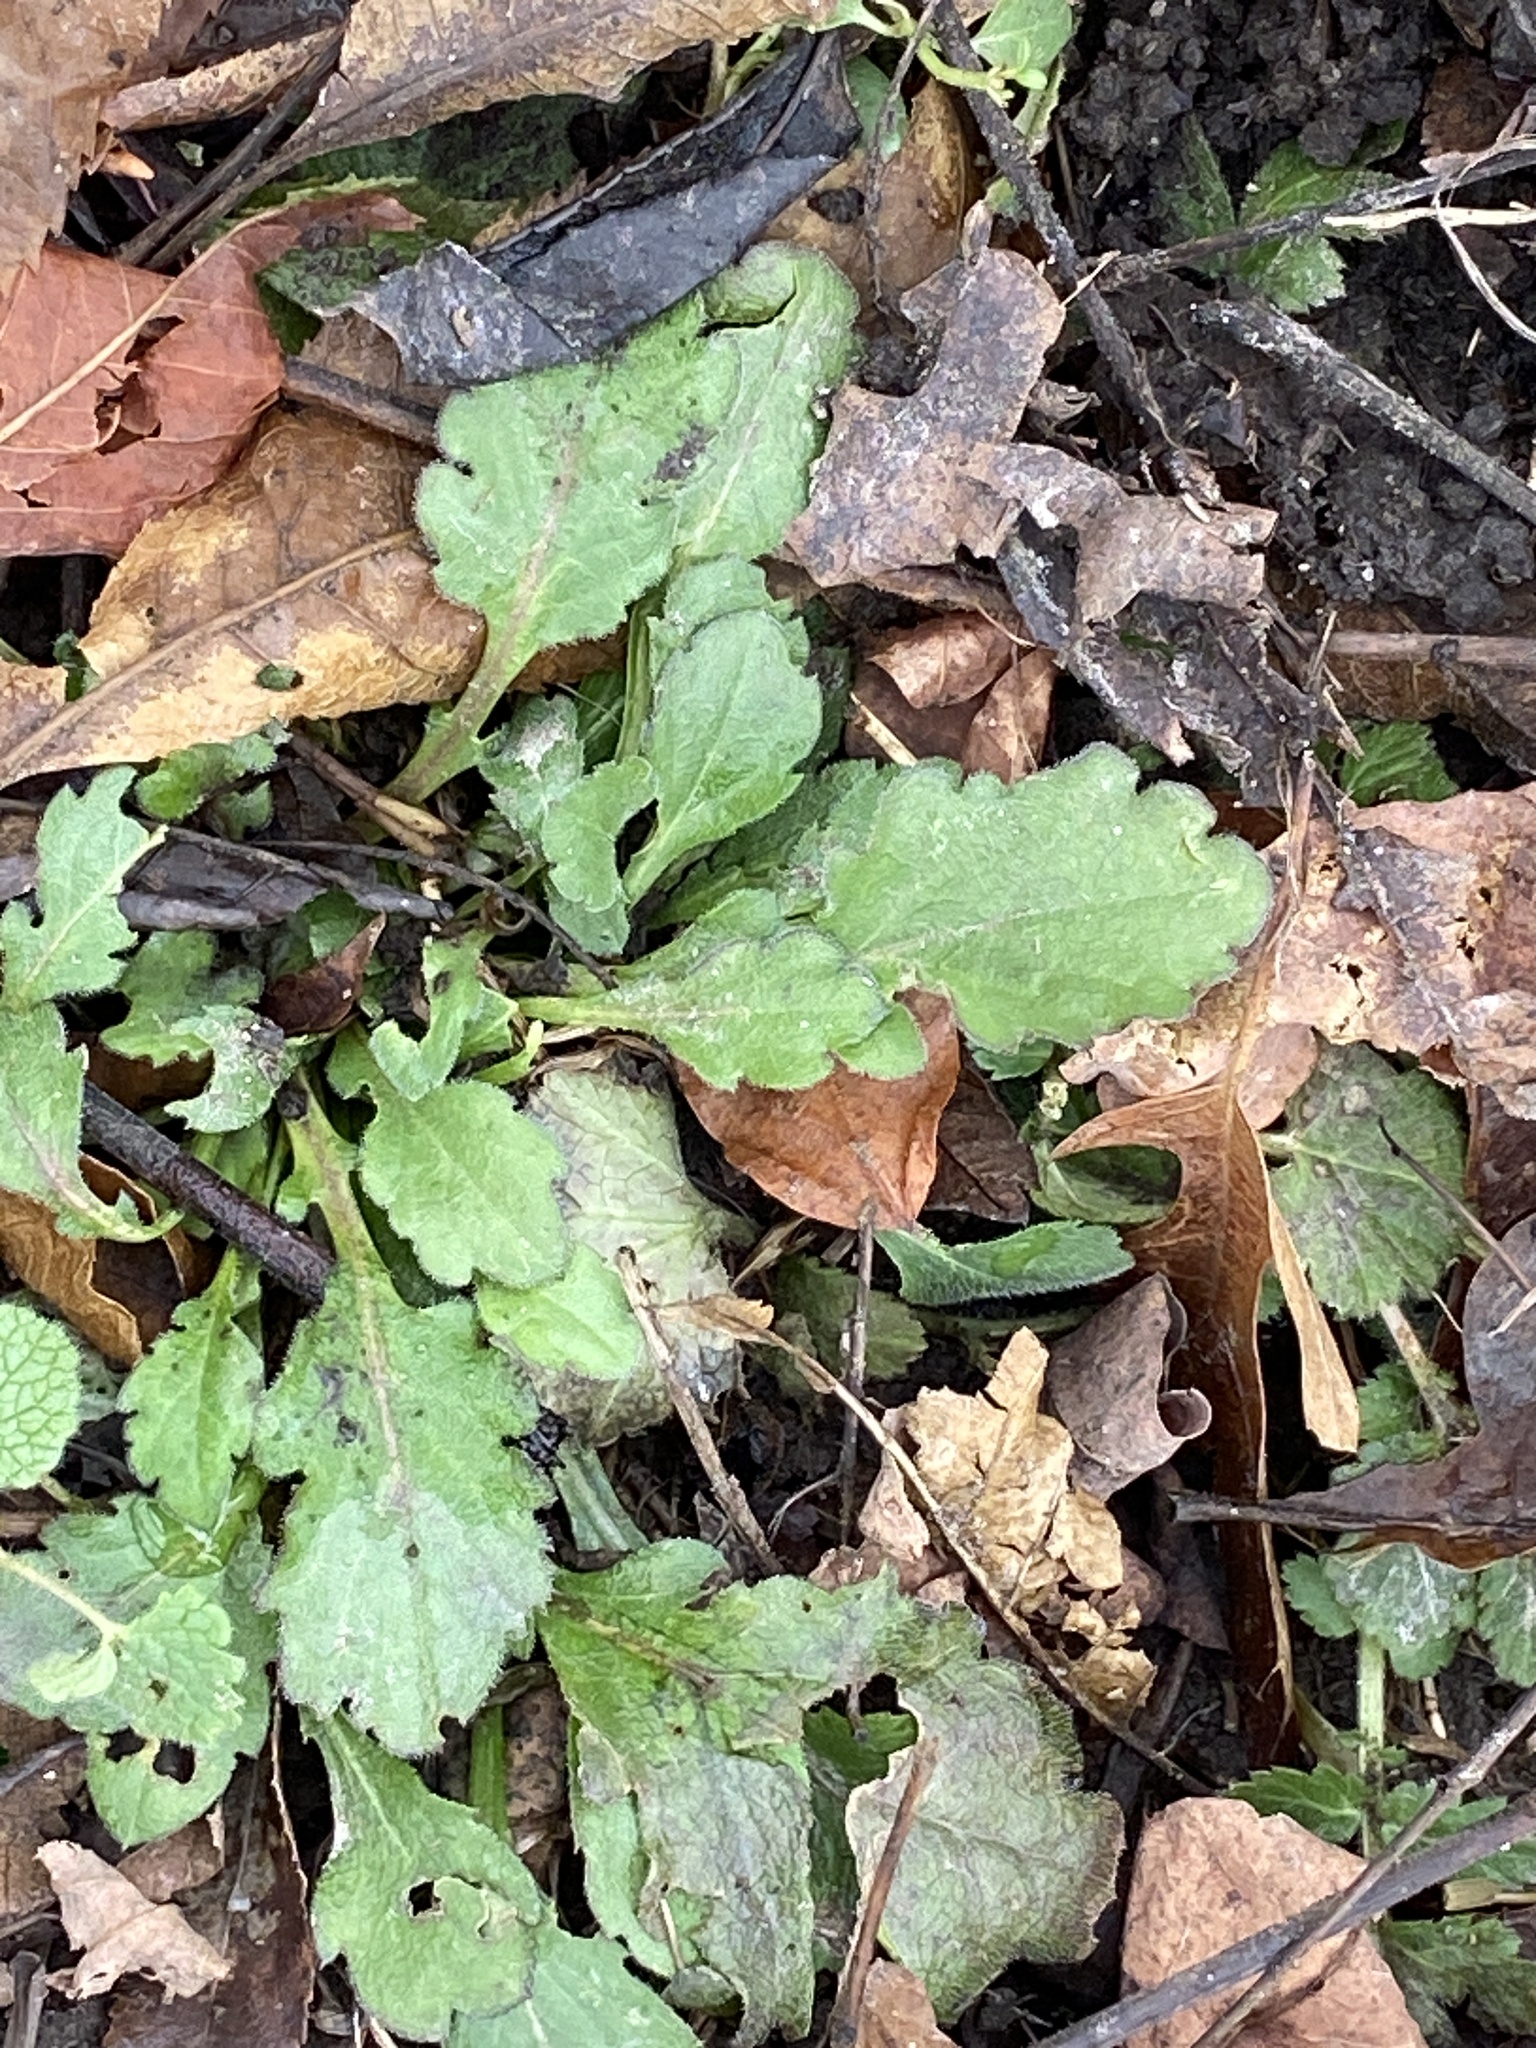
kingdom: Plantae
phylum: Tracheophyta
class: Magnoliopsida
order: Asterales
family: Asteraceae
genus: Erigeron
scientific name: Erigeron canadensis
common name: Canadian fleabane
